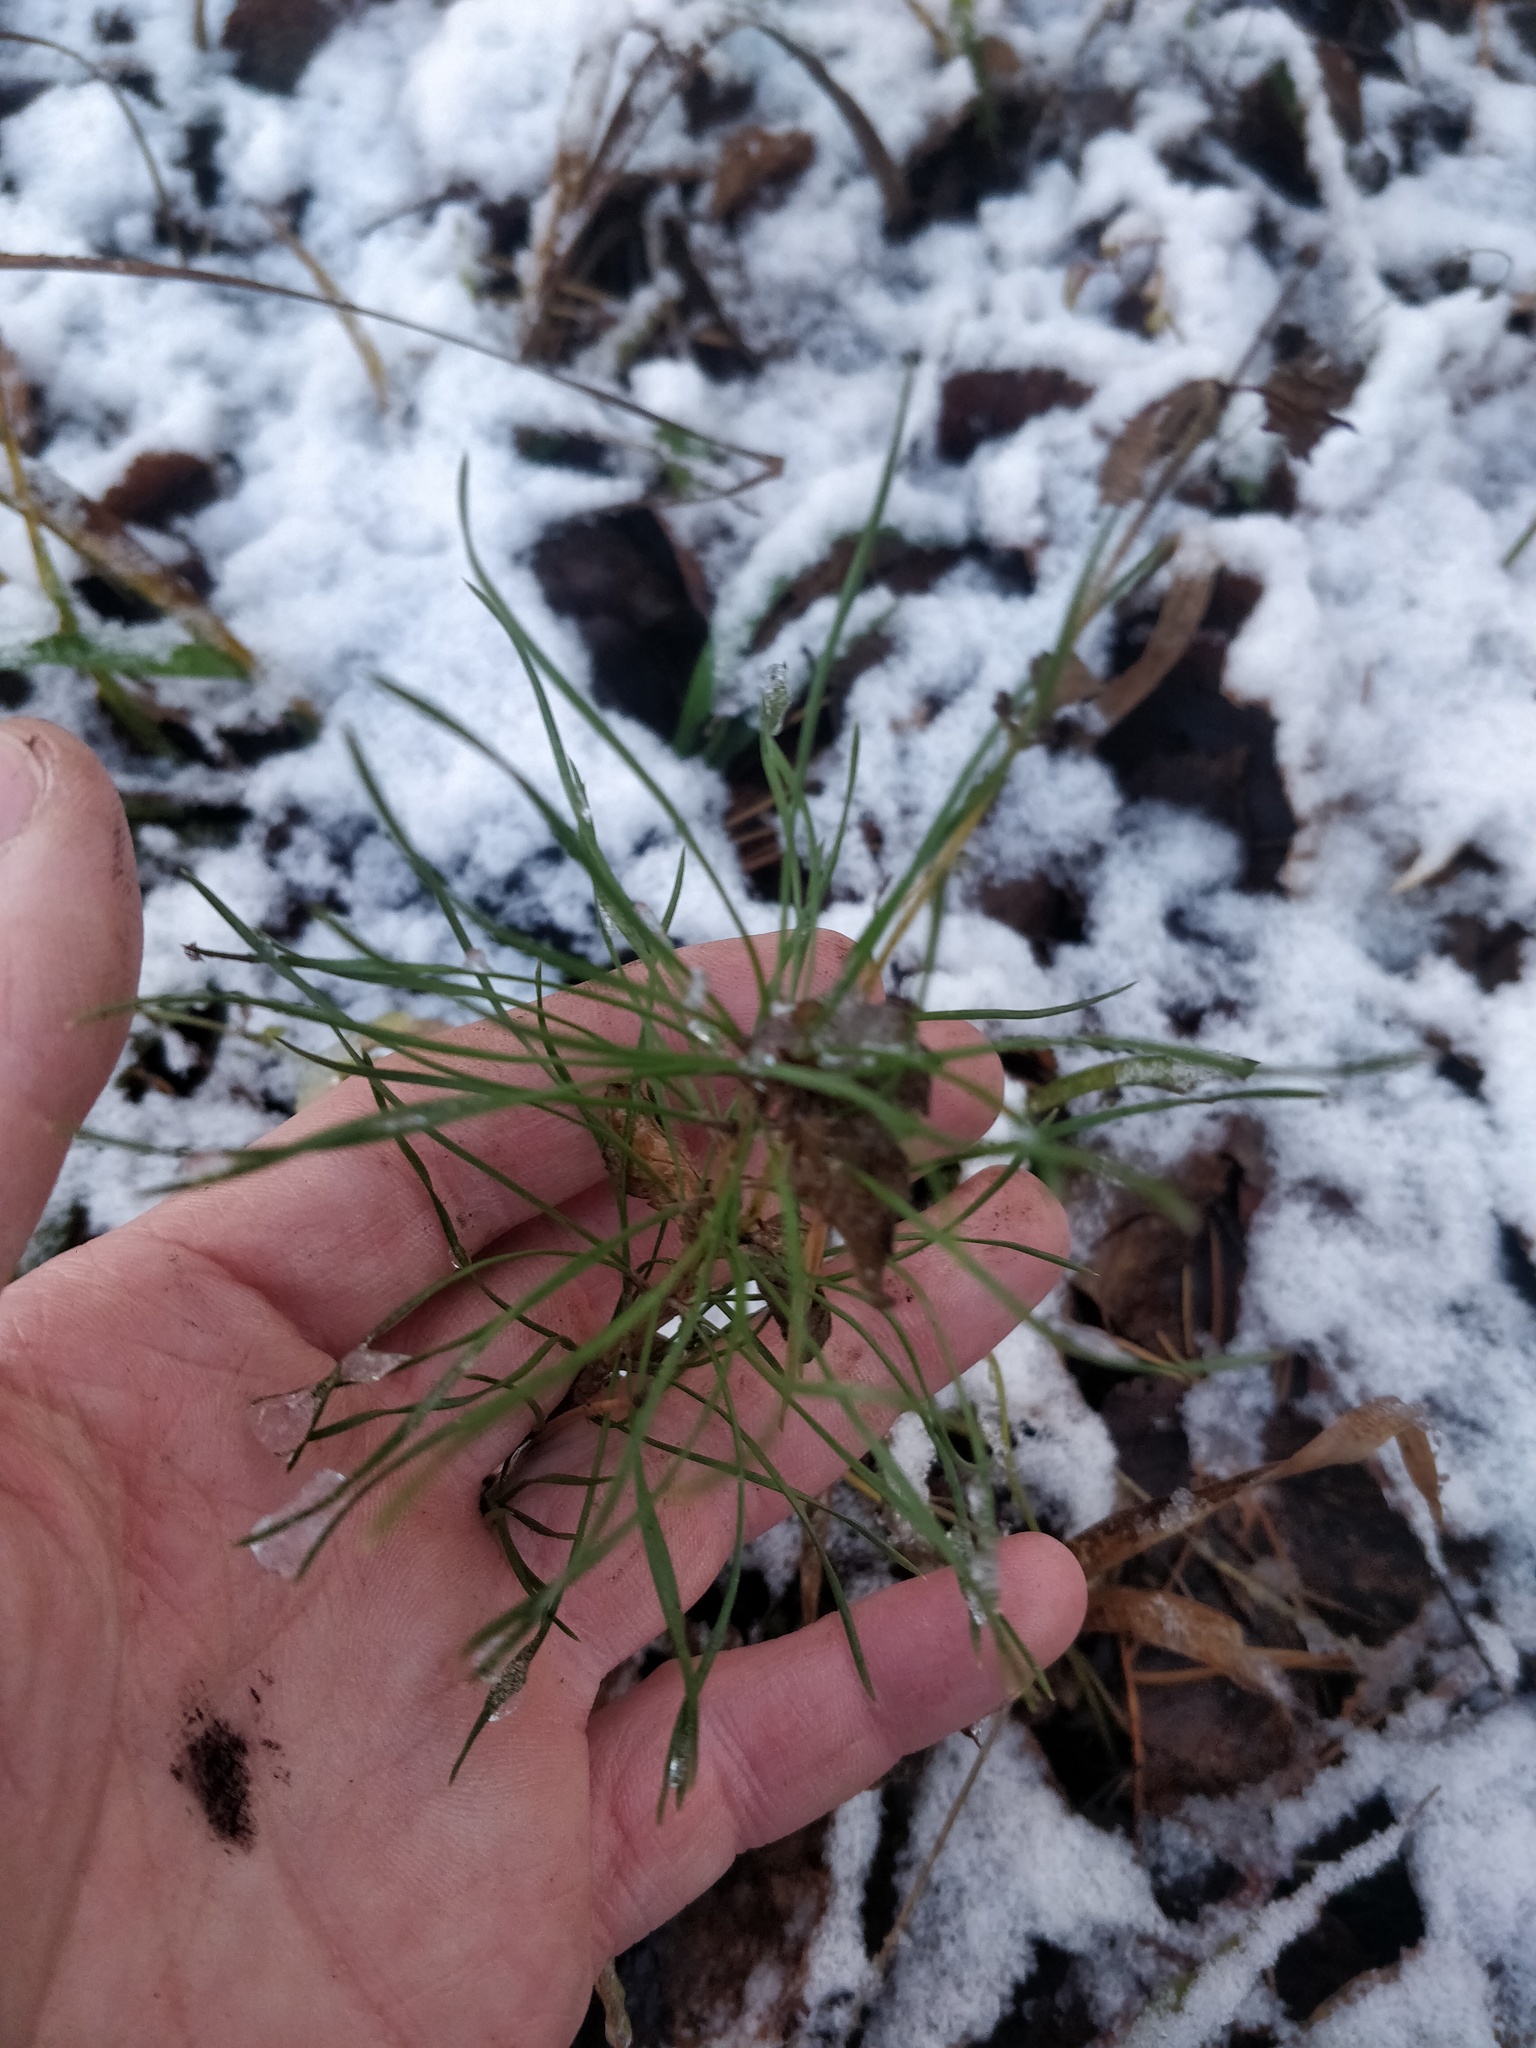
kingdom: Plantae
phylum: Tracheophyta
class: Pinopsida
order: Pinales
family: Pinaceae
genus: Pinus
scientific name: Pinus sylvestris
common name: Scots pine
